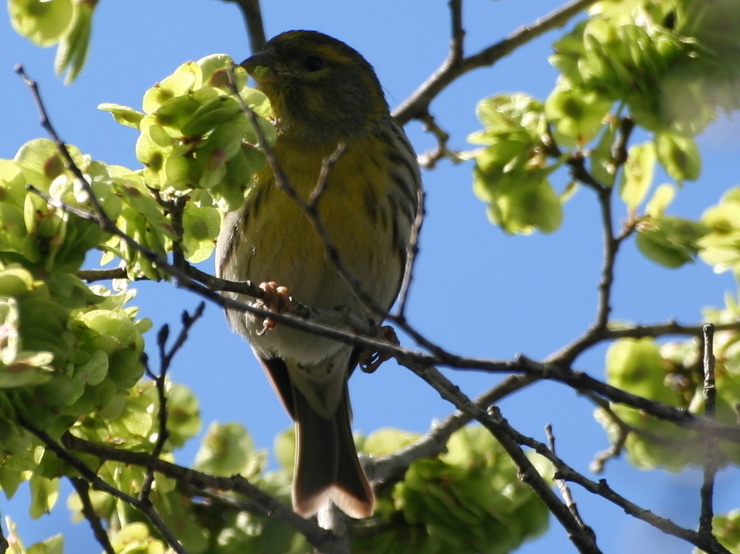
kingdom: Animalia
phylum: Chordata
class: Aves
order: Passeriformes
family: Fringillidae
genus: Serinus
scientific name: Serinus serinus
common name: European serin
